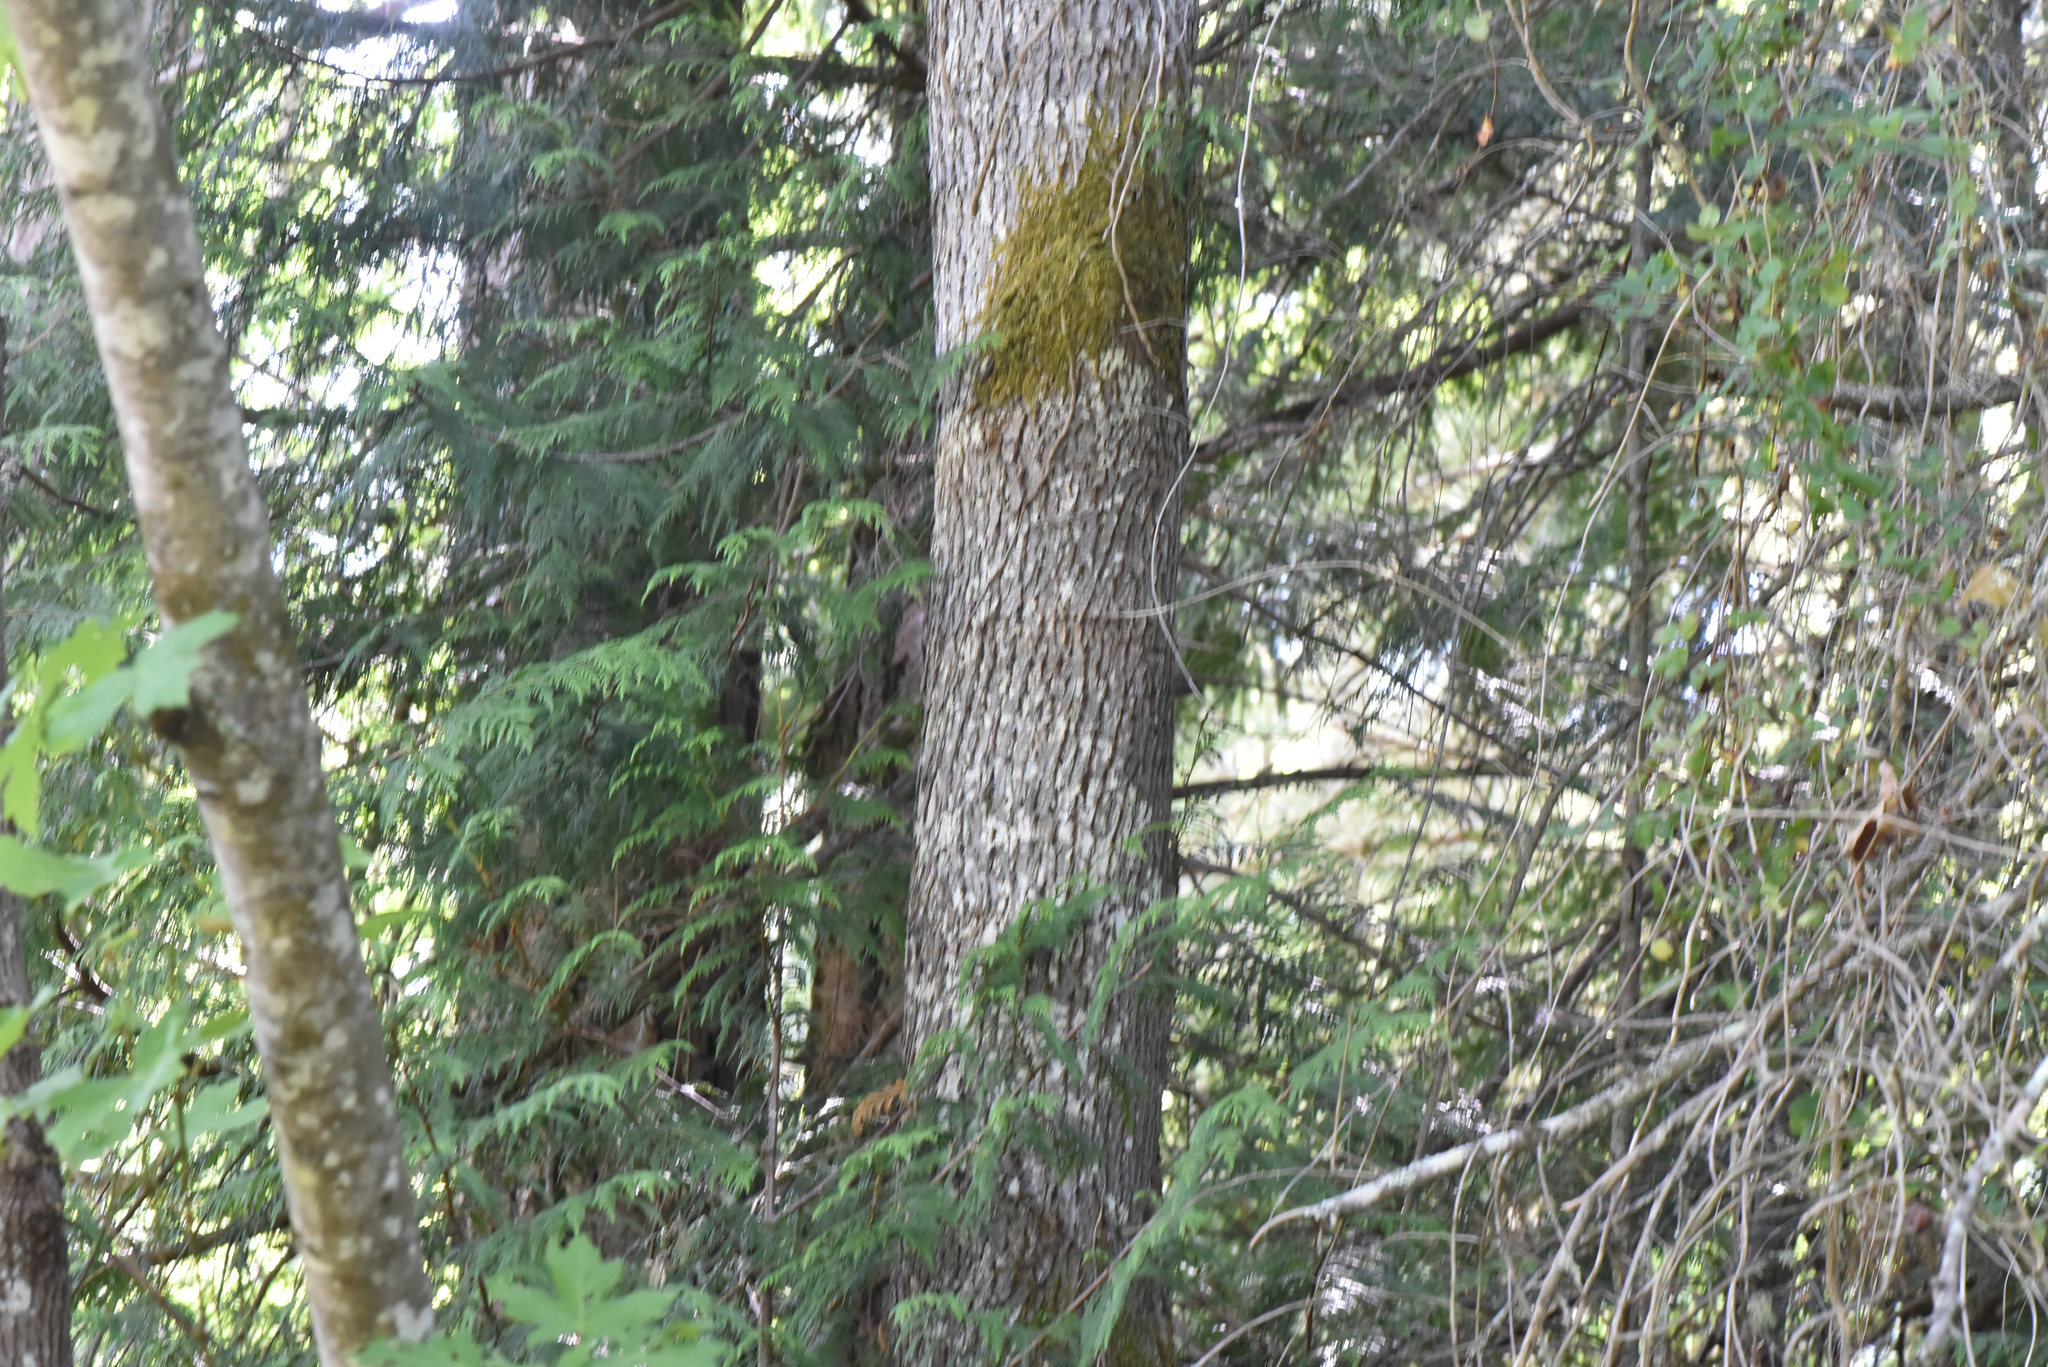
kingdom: Plantae
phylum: Tracheophyta
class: Magnoliopsida
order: Sapindales
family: Sapindaceae
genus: Acer
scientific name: Acer macrophyllum
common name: Oregon maple
